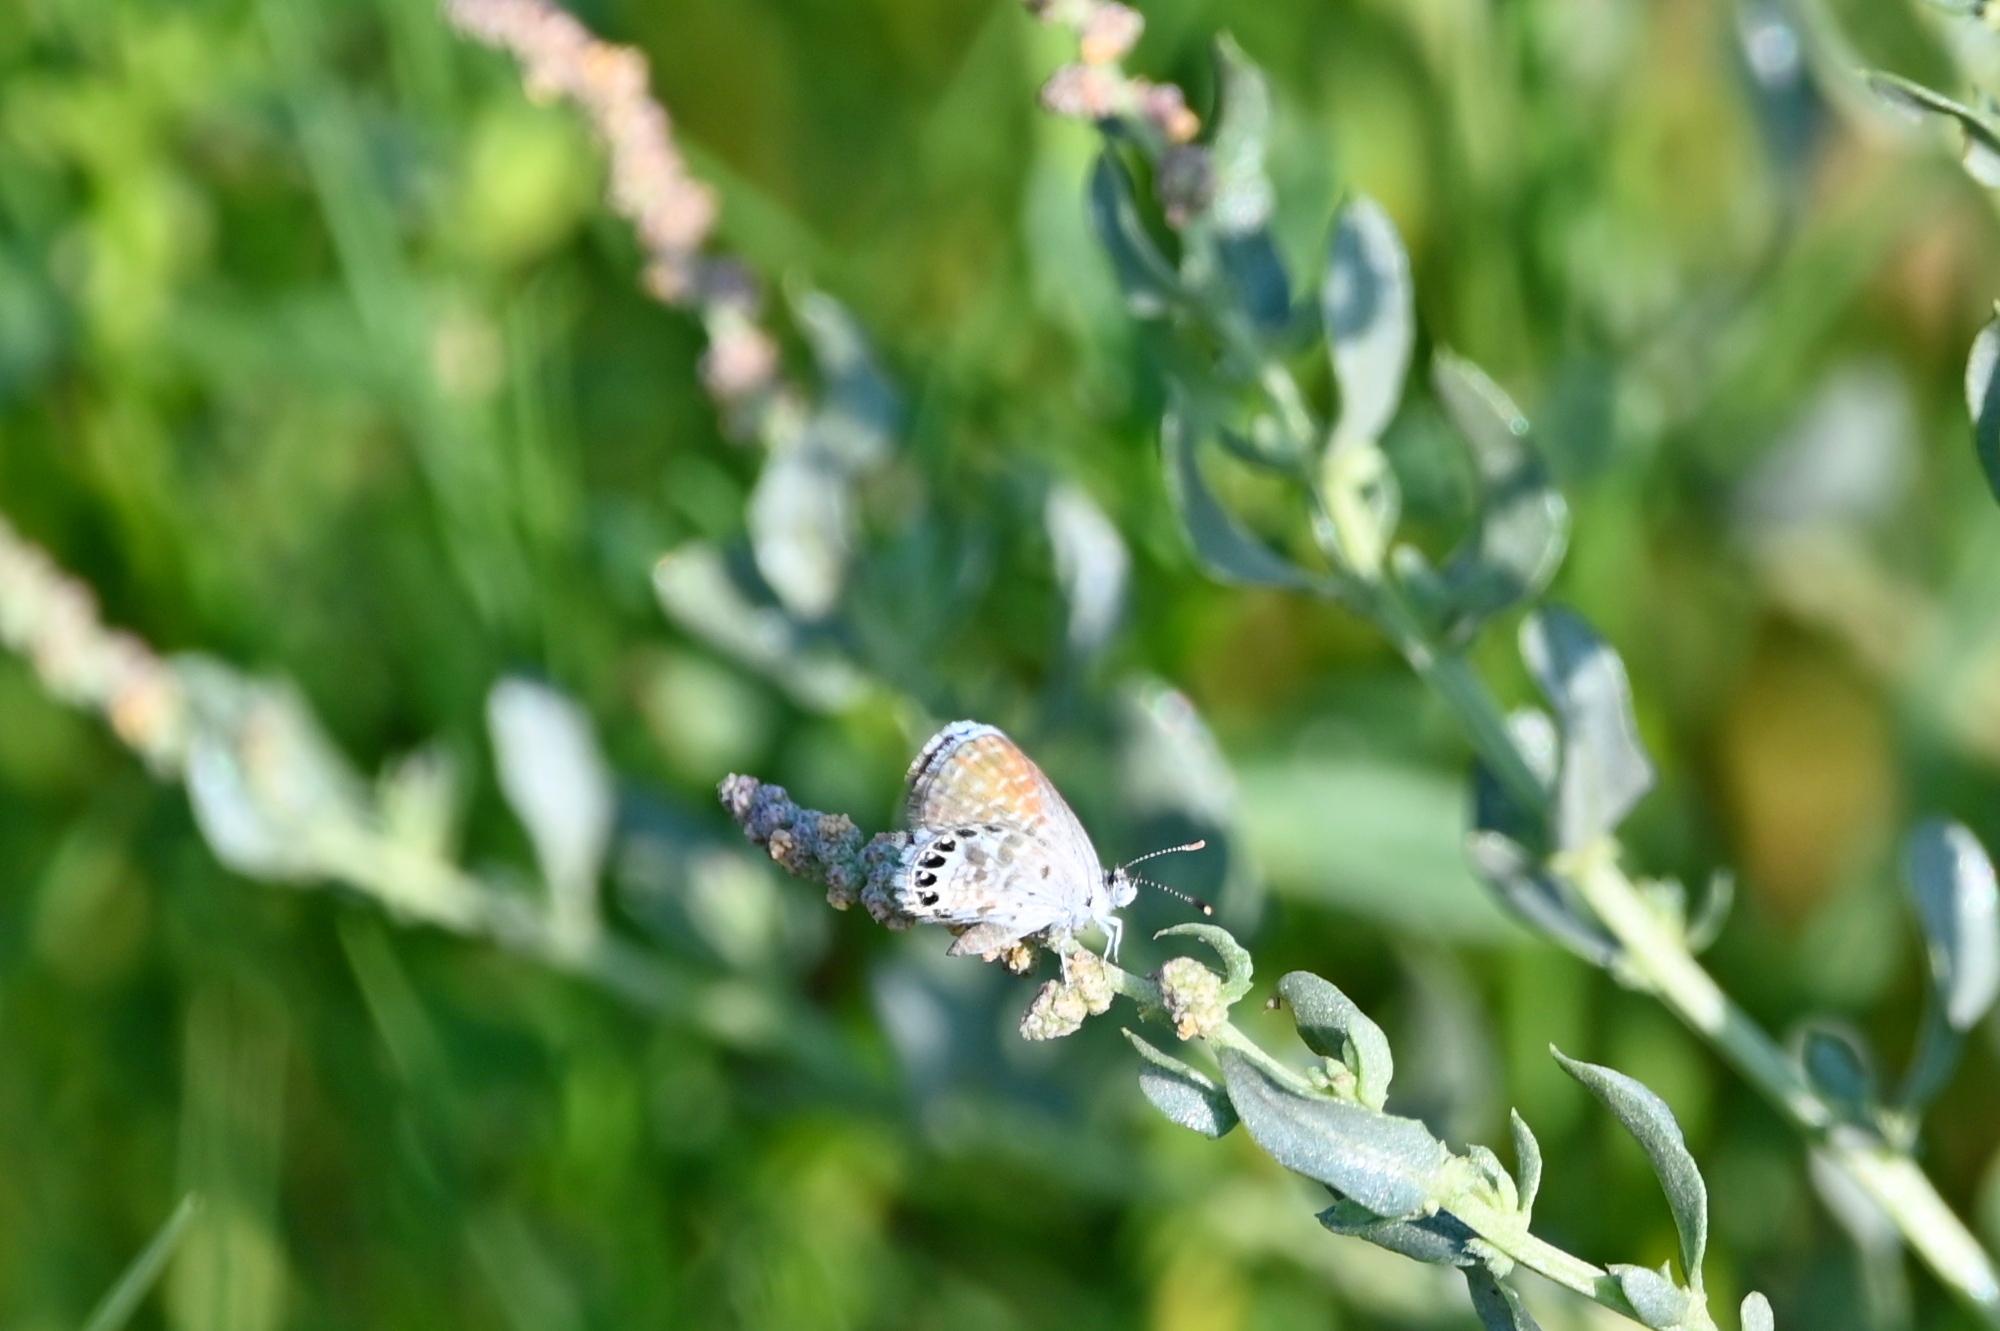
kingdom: Animalia
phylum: Arthropoda
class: Insecta
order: Lepidoptera
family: Lycaenidae
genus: Brephidium
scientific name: Brephidium exilis
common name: Pygmy blue
